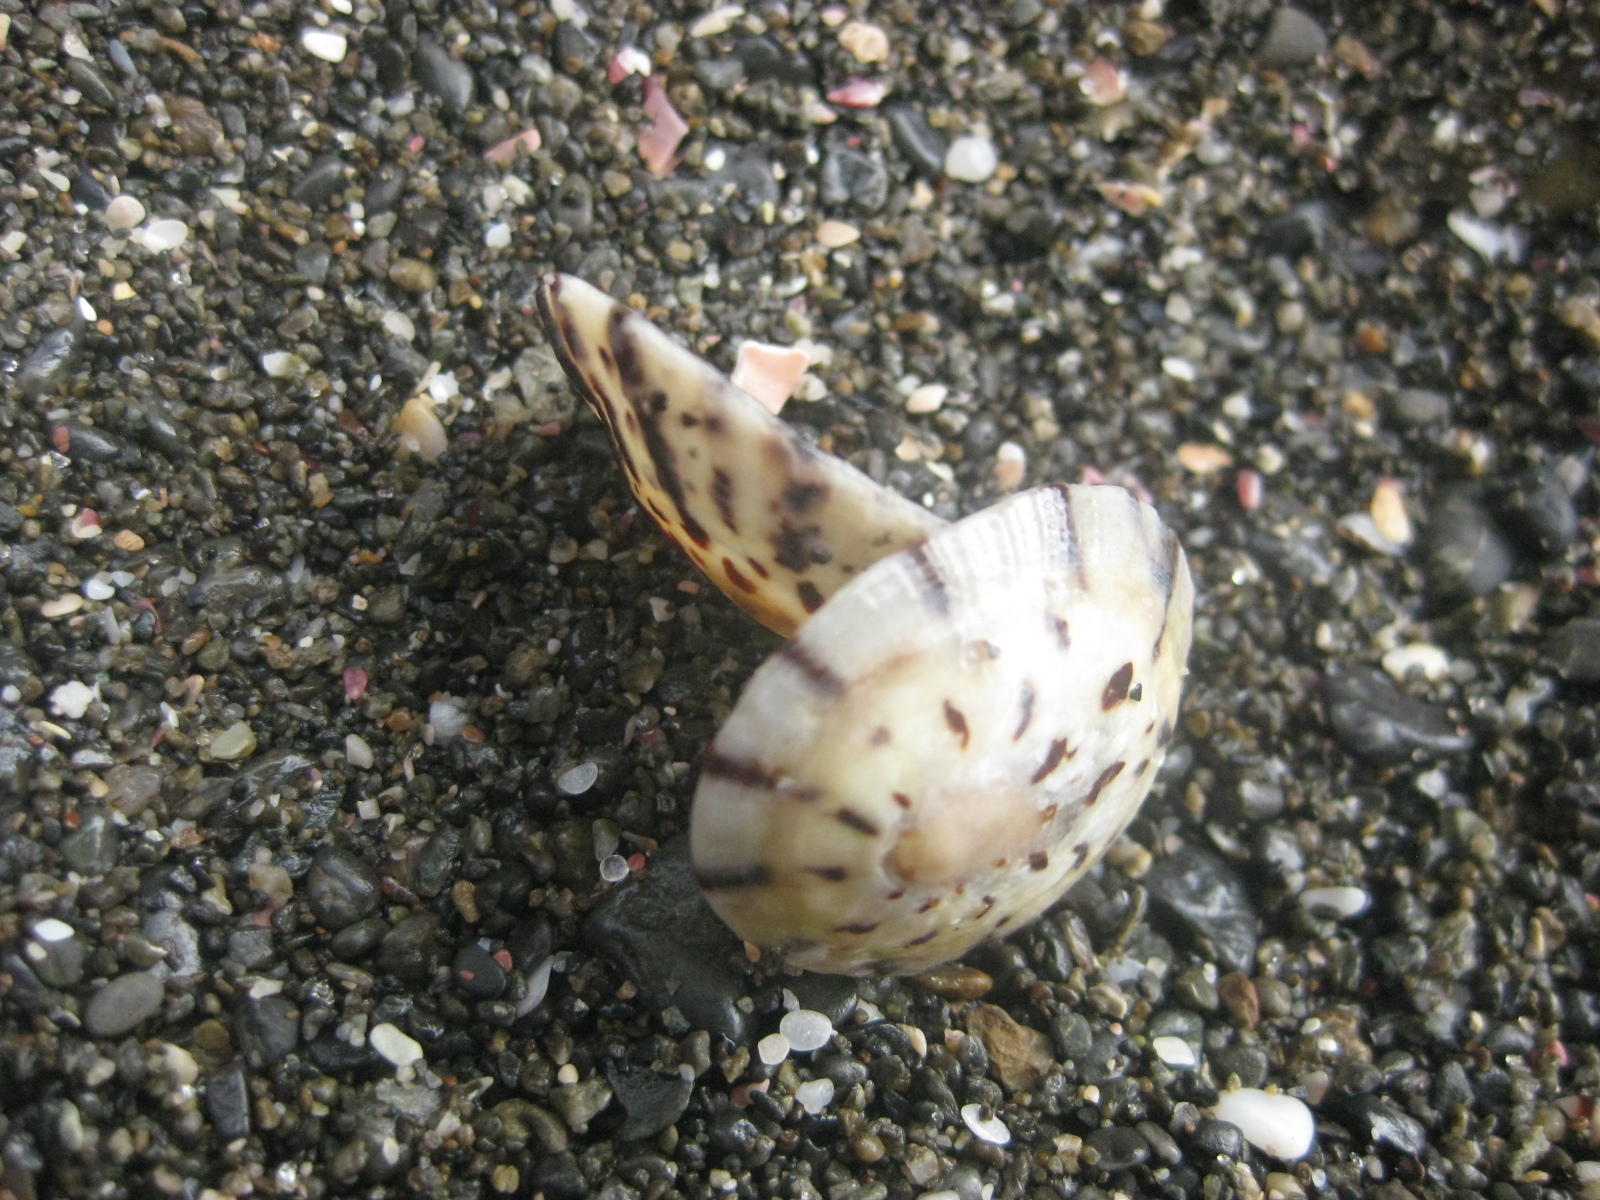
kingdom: Animalia
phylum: Mollusca
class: Gastropoda
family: Nacellidae
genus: Cellana
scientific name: Cellana radians
